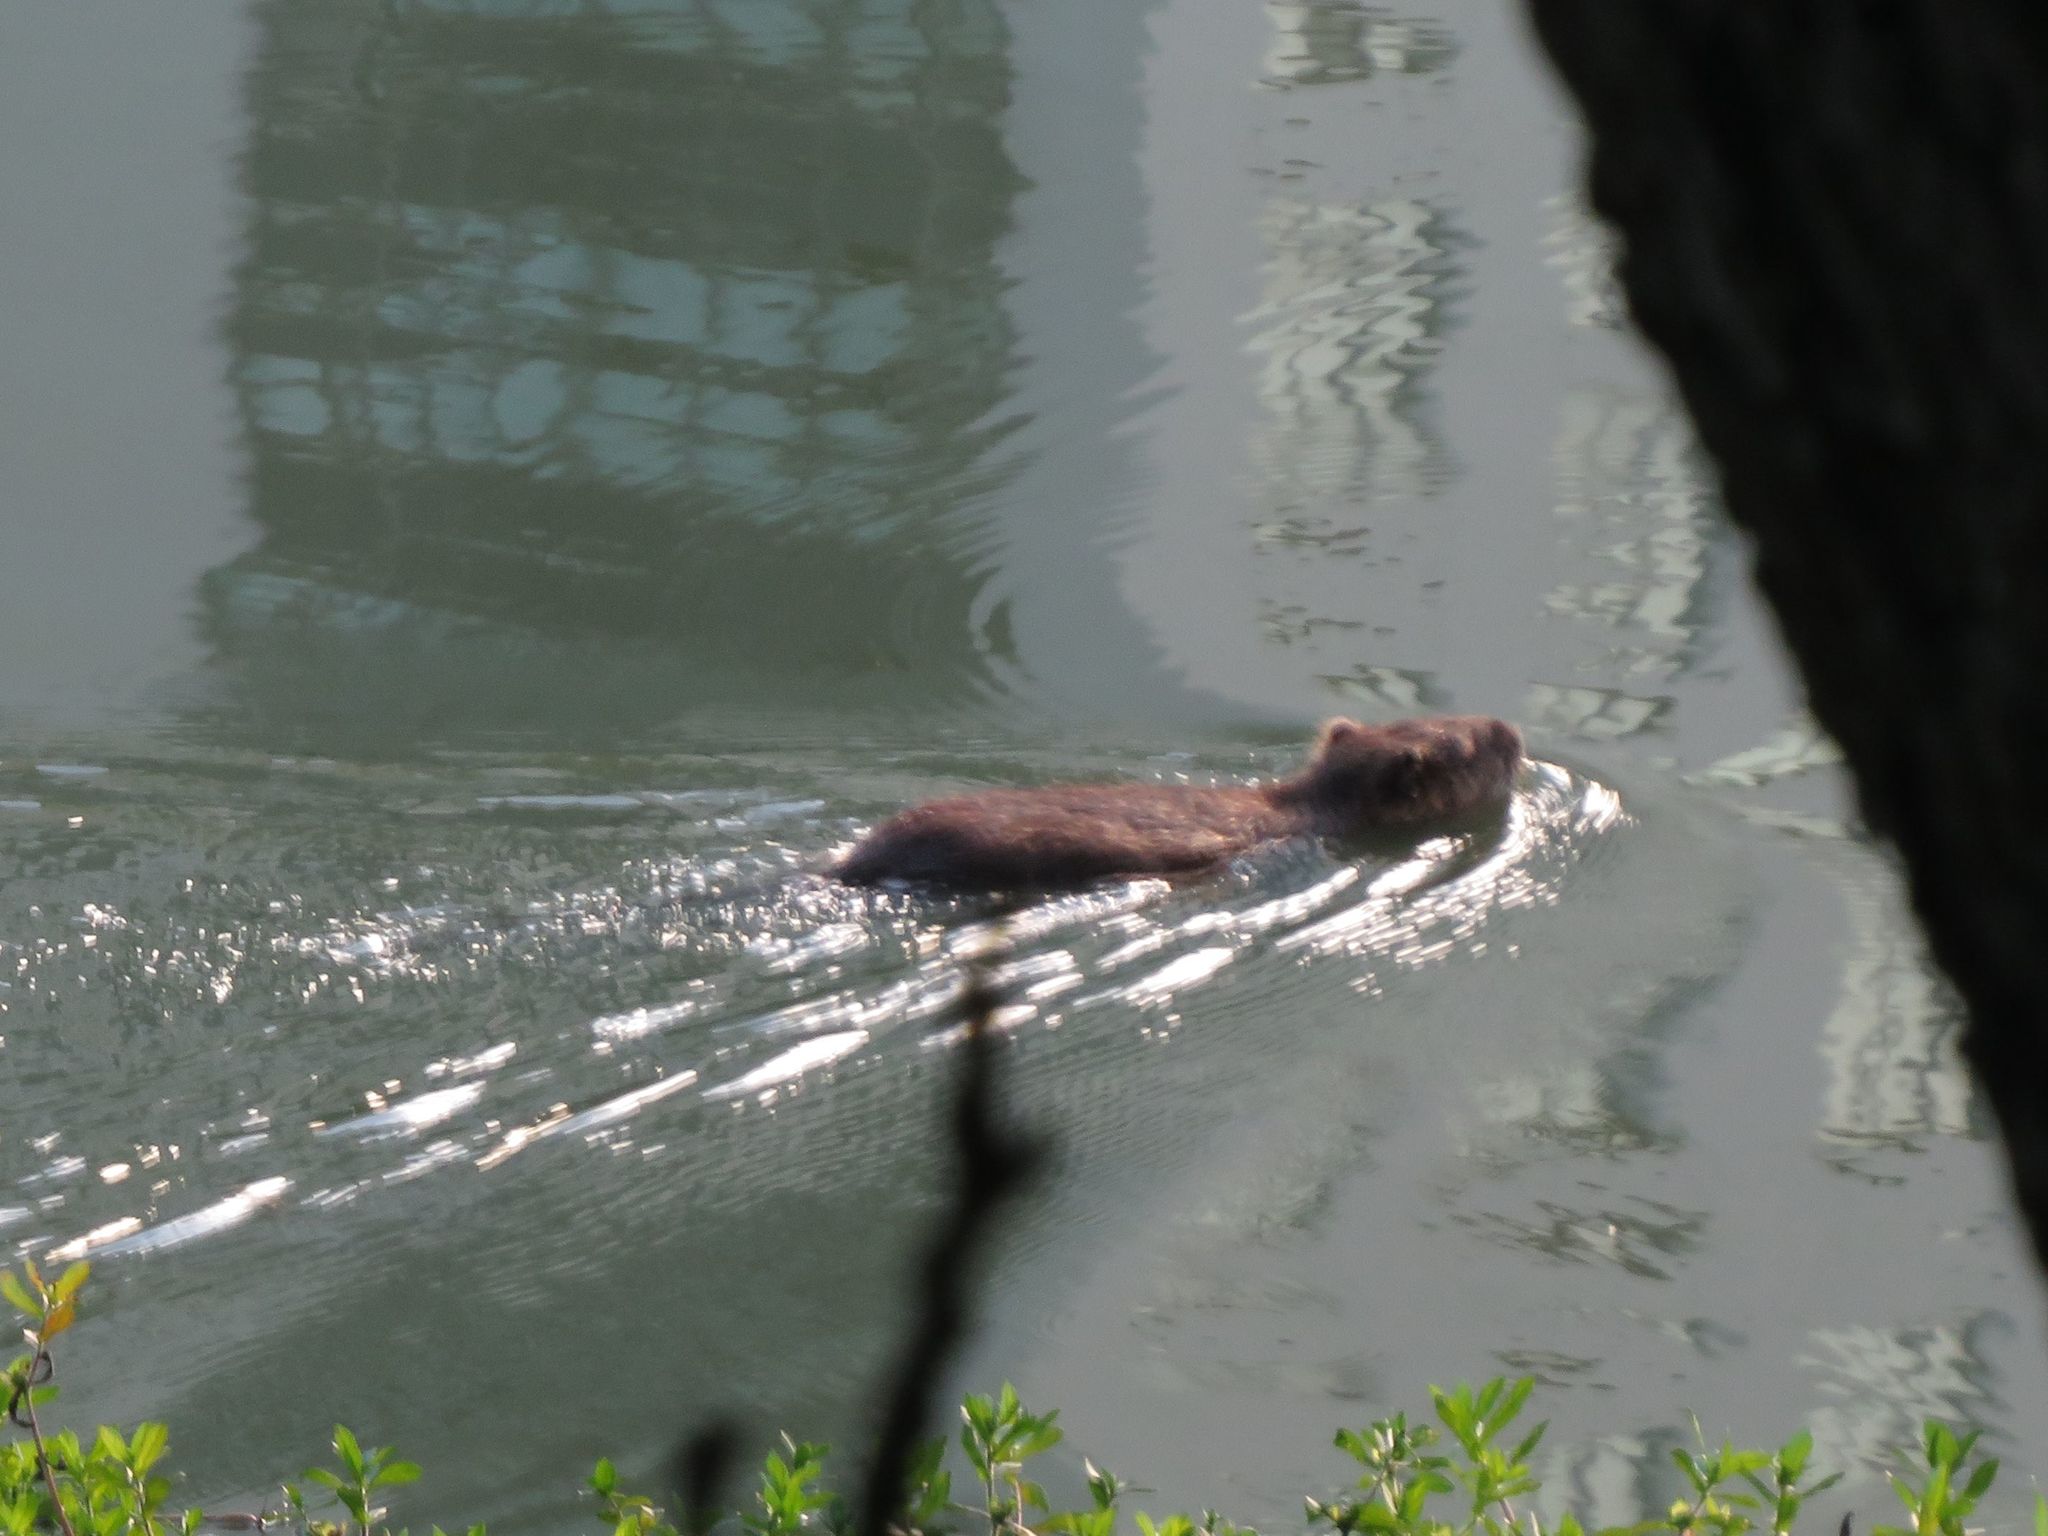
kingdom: Animalia
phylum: Chordata
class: Mammalia
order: Rodentia
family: Myocastoridae
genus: Myocastor
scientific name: Myocastor coypus
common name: Coypu
